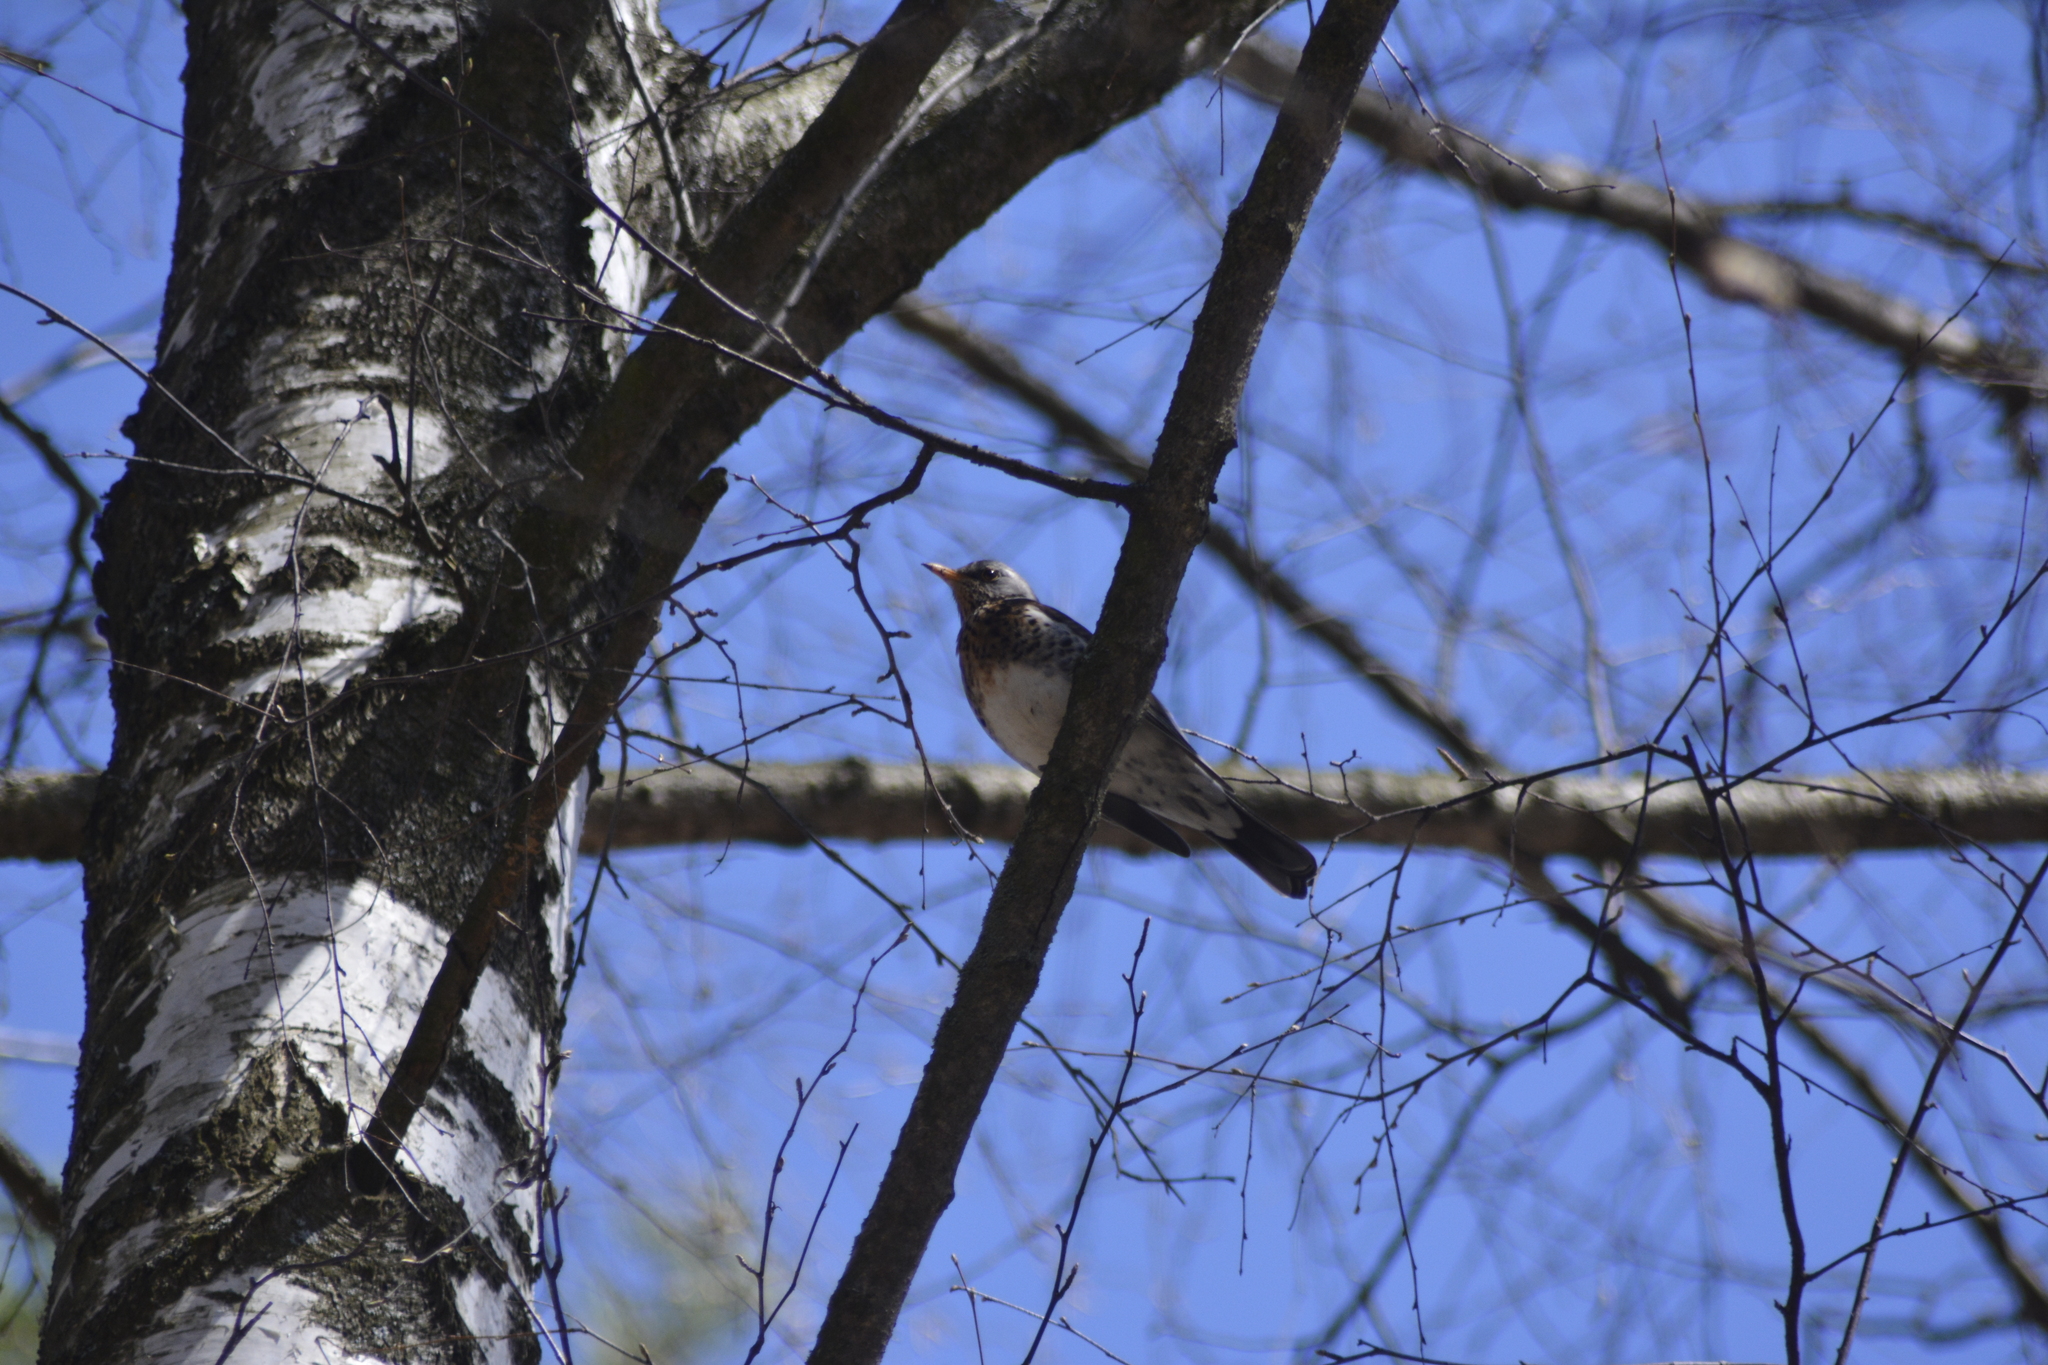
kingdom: Animalia
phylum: Chordata
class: Aves
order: Passeriformes
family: Turdidae
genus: Turdus
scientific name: Turdus pilaris
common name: Fieldfare
